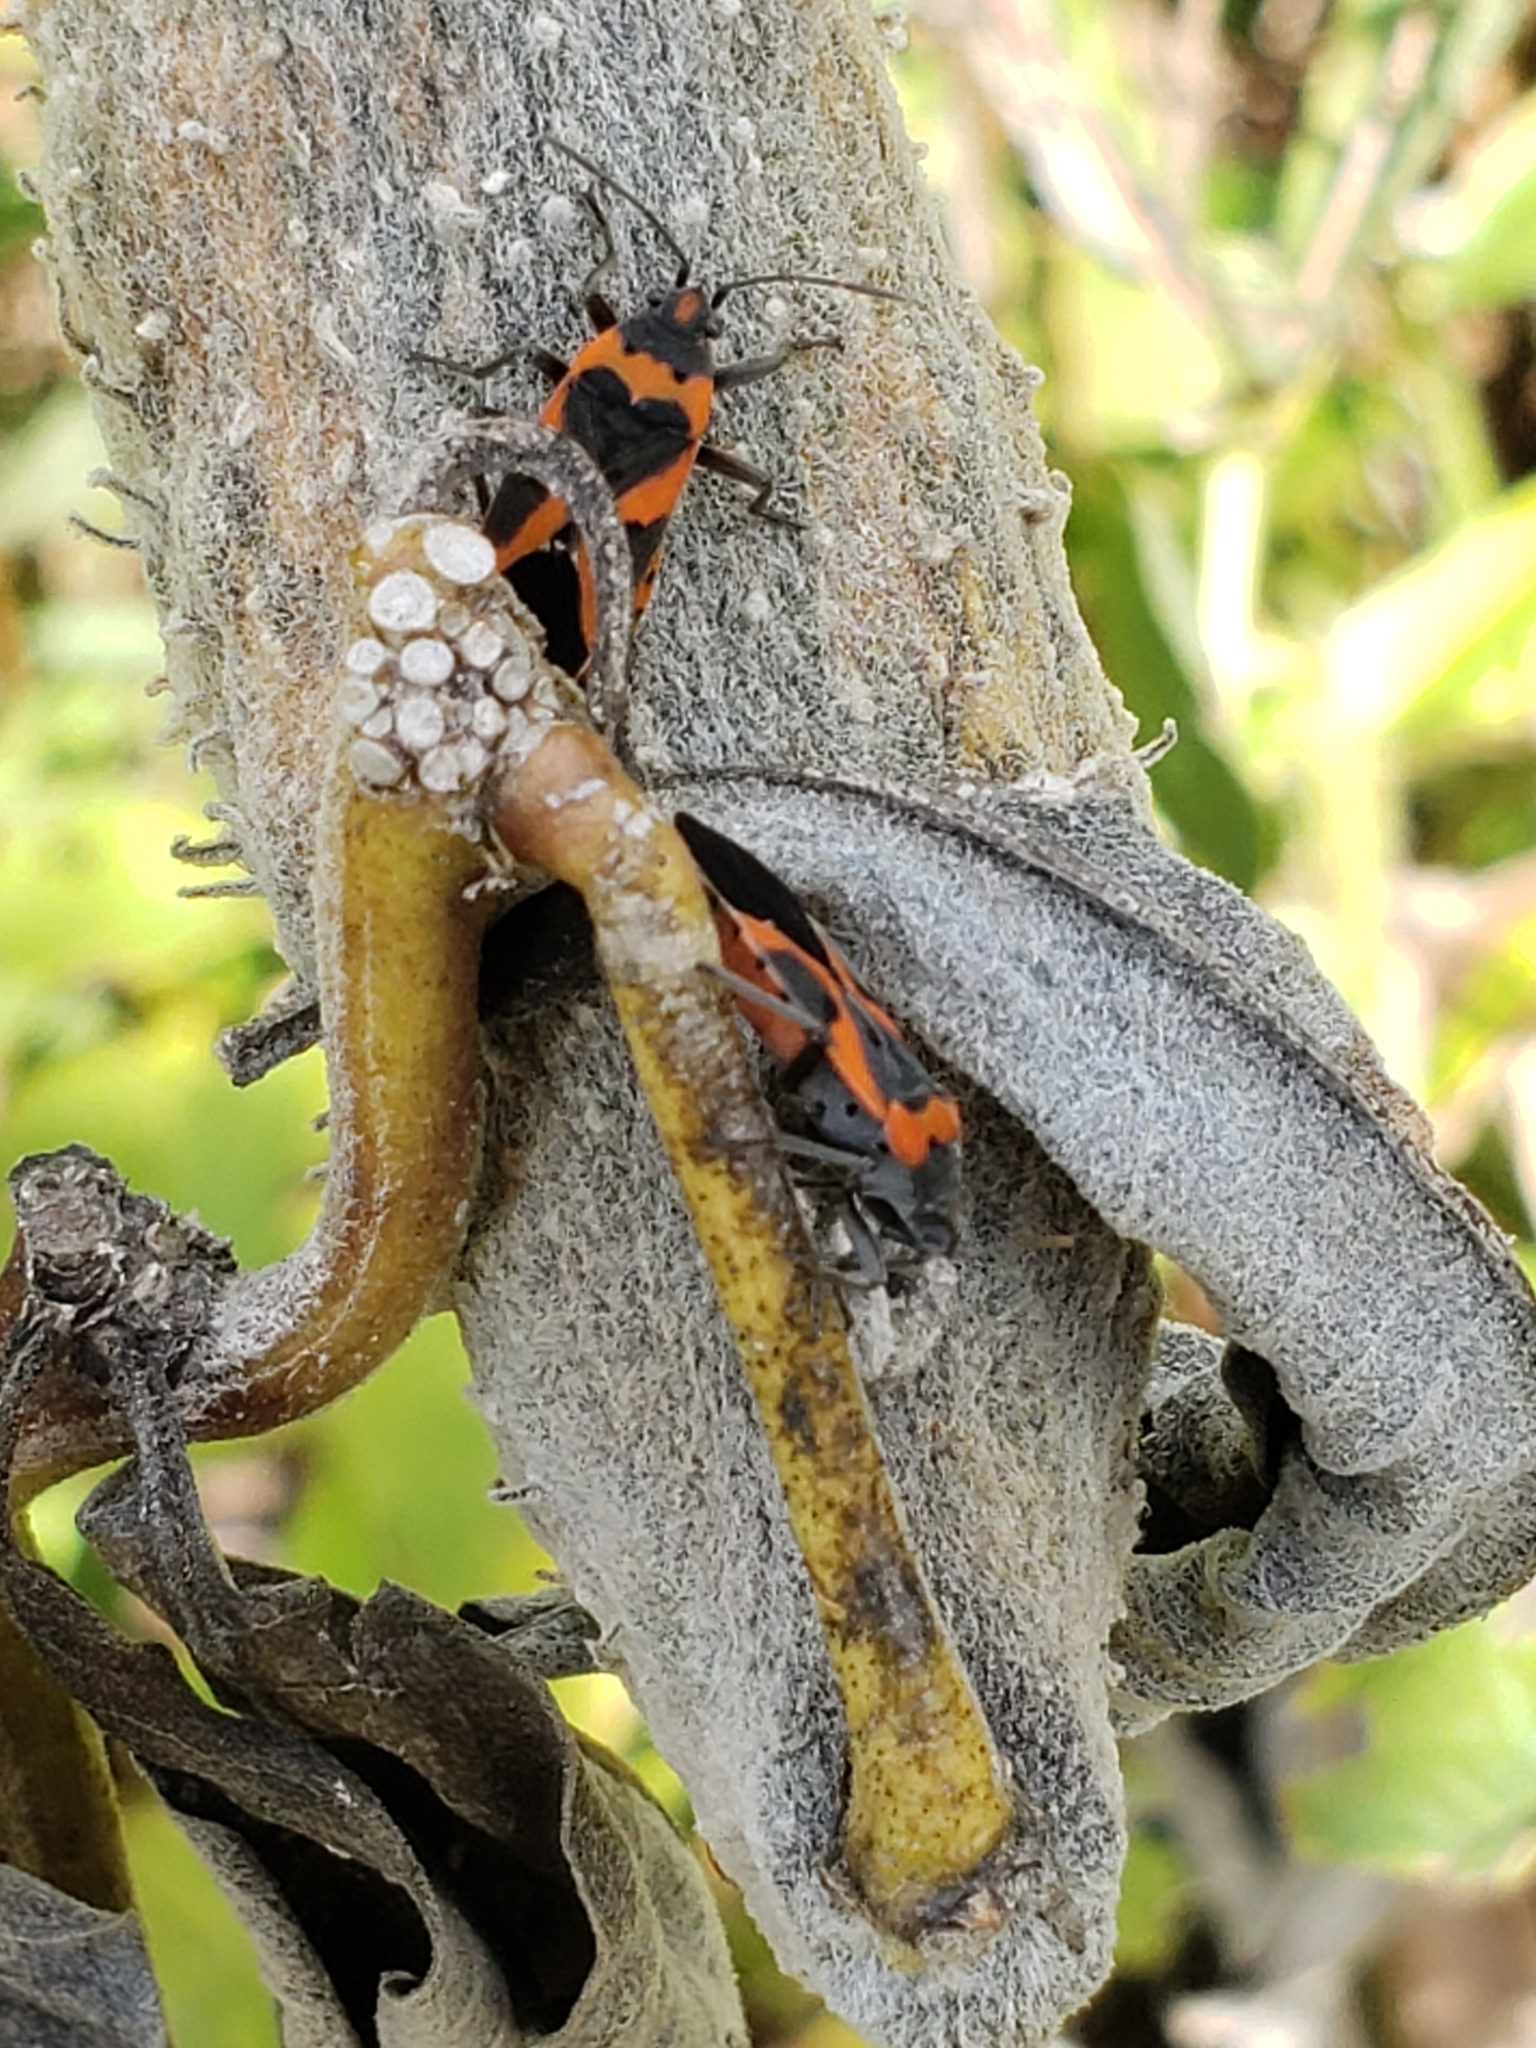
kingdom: Animalia
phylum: Arthropoda
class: Insecta
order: Hemiptera
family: Lygaeidae
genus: Lygaeus
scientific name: Lygaeus kalmii
